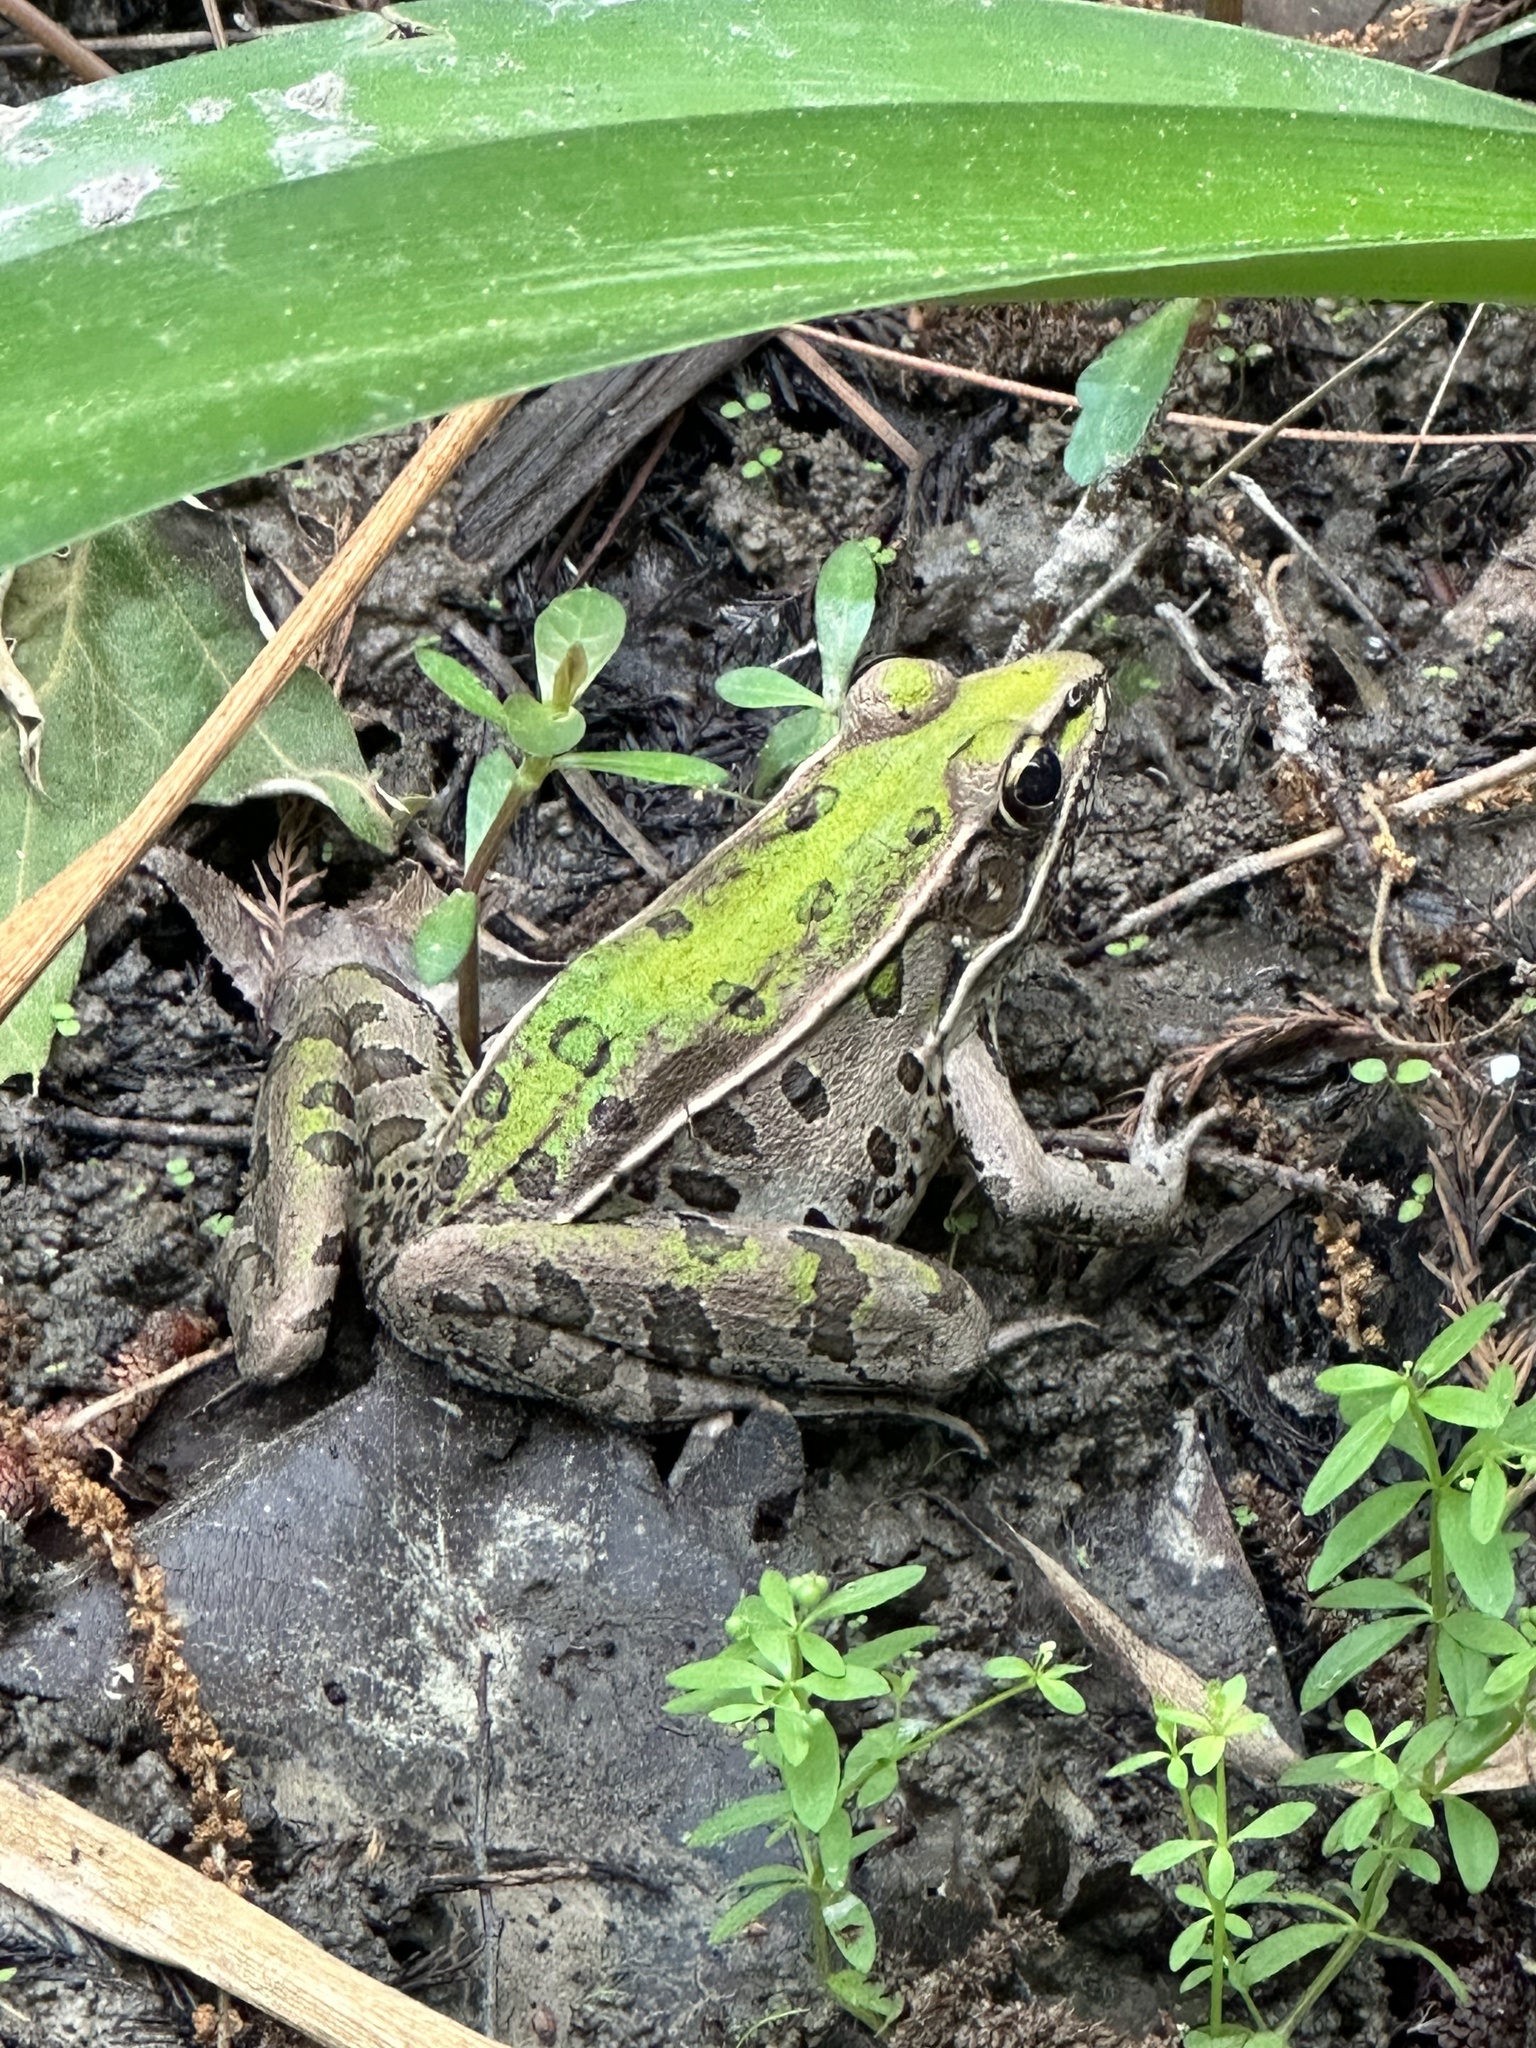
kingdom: Animalia
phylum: Chordata
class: Amphibia
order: Anura
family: Ranidae
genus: Lithobates
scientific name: Lithobates sphenocephalus
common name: Southern leopard frog
